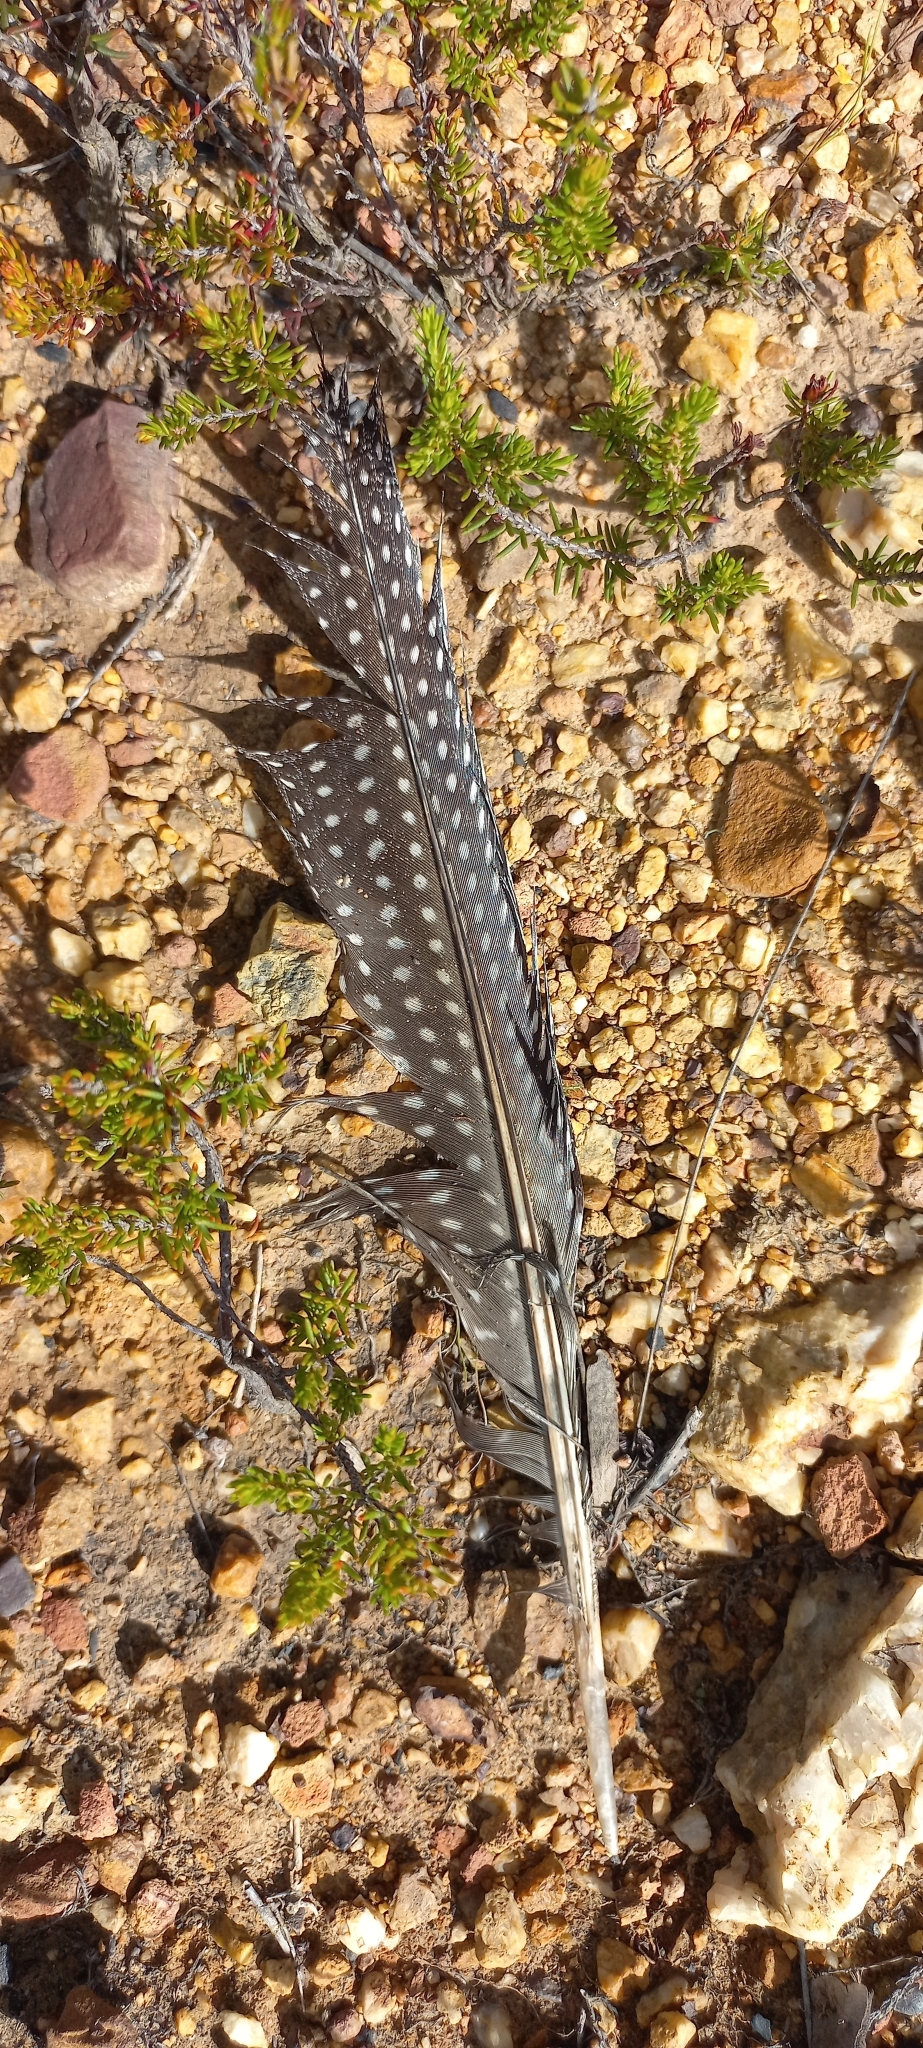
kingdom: Animalia
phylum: Chordata
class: Aves
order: Galliformes
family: Numididae
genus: Numida
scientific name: Numida meleagris
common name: Helmeted guineafowl
